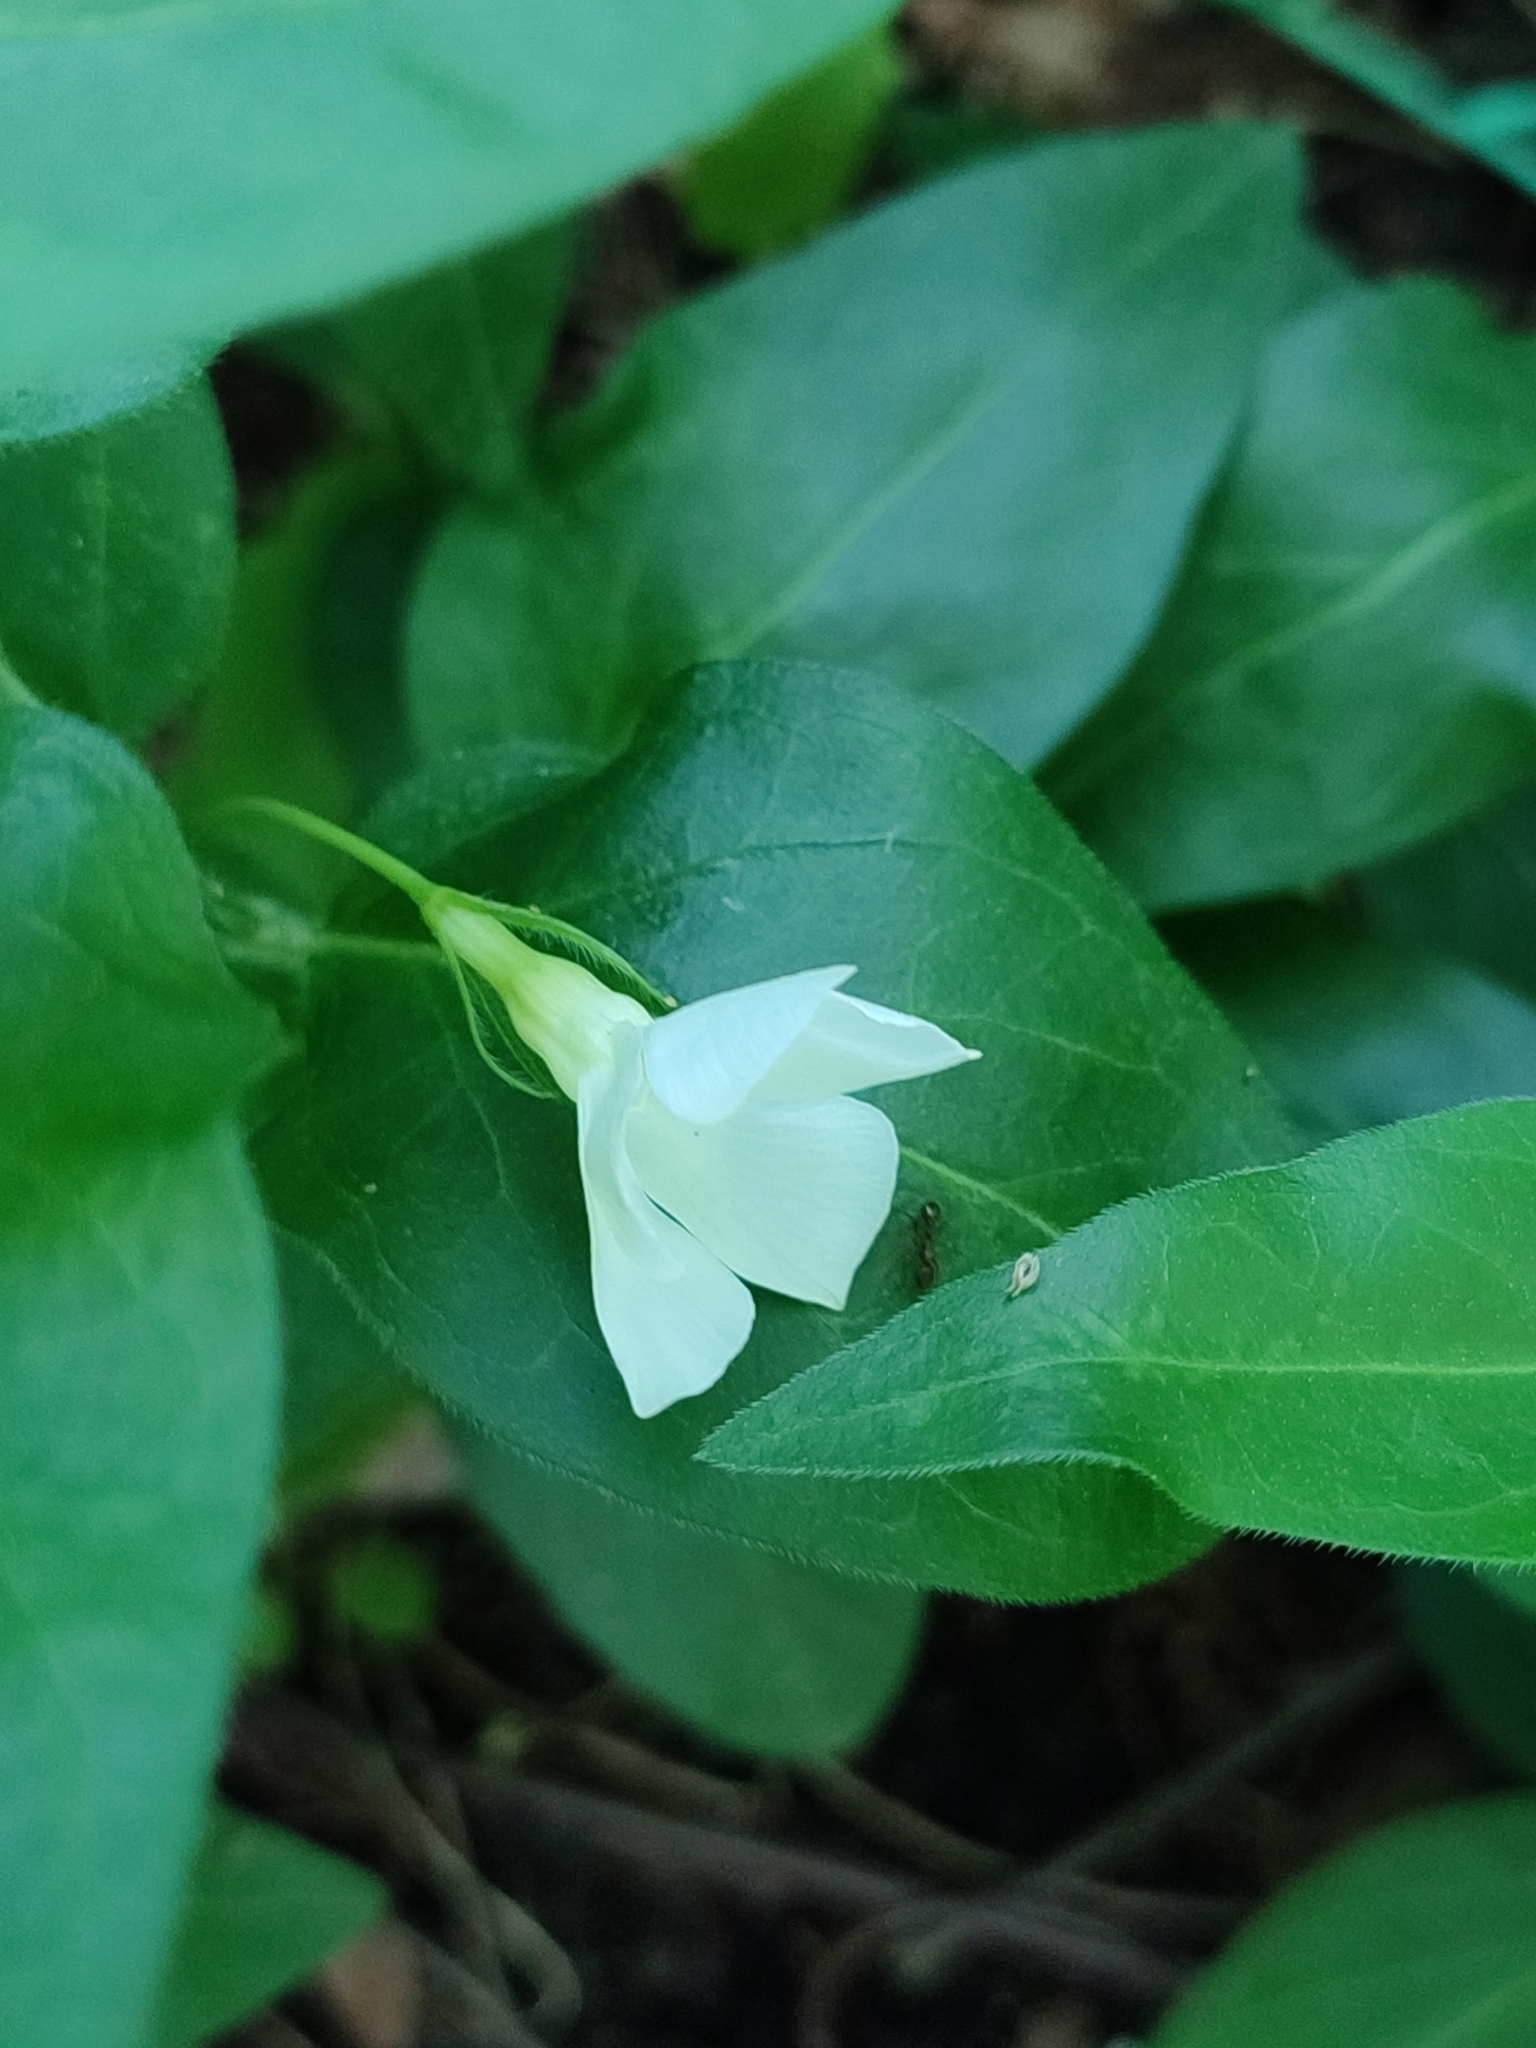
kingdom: Plantae
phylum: Tracheophyta
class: Magnoliopsida
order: Gentianales
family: Apocynaceae
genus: Vinca
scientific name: Vinca major
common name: Greater periwinkle
